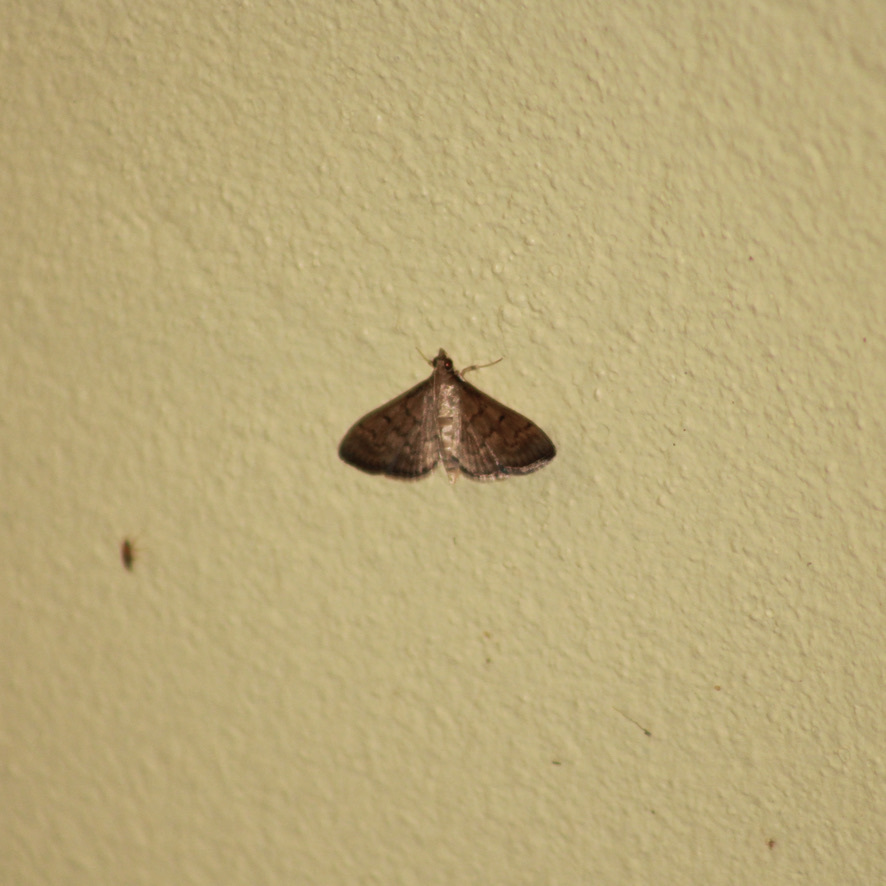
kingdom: Animalia
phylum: Arthropoda
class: Insecta
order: Lepidoptera
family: Crambidae
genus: Herpetogramma
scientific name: Herpetogramma phaeopteralis
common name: Dusky herpetogramma moth
